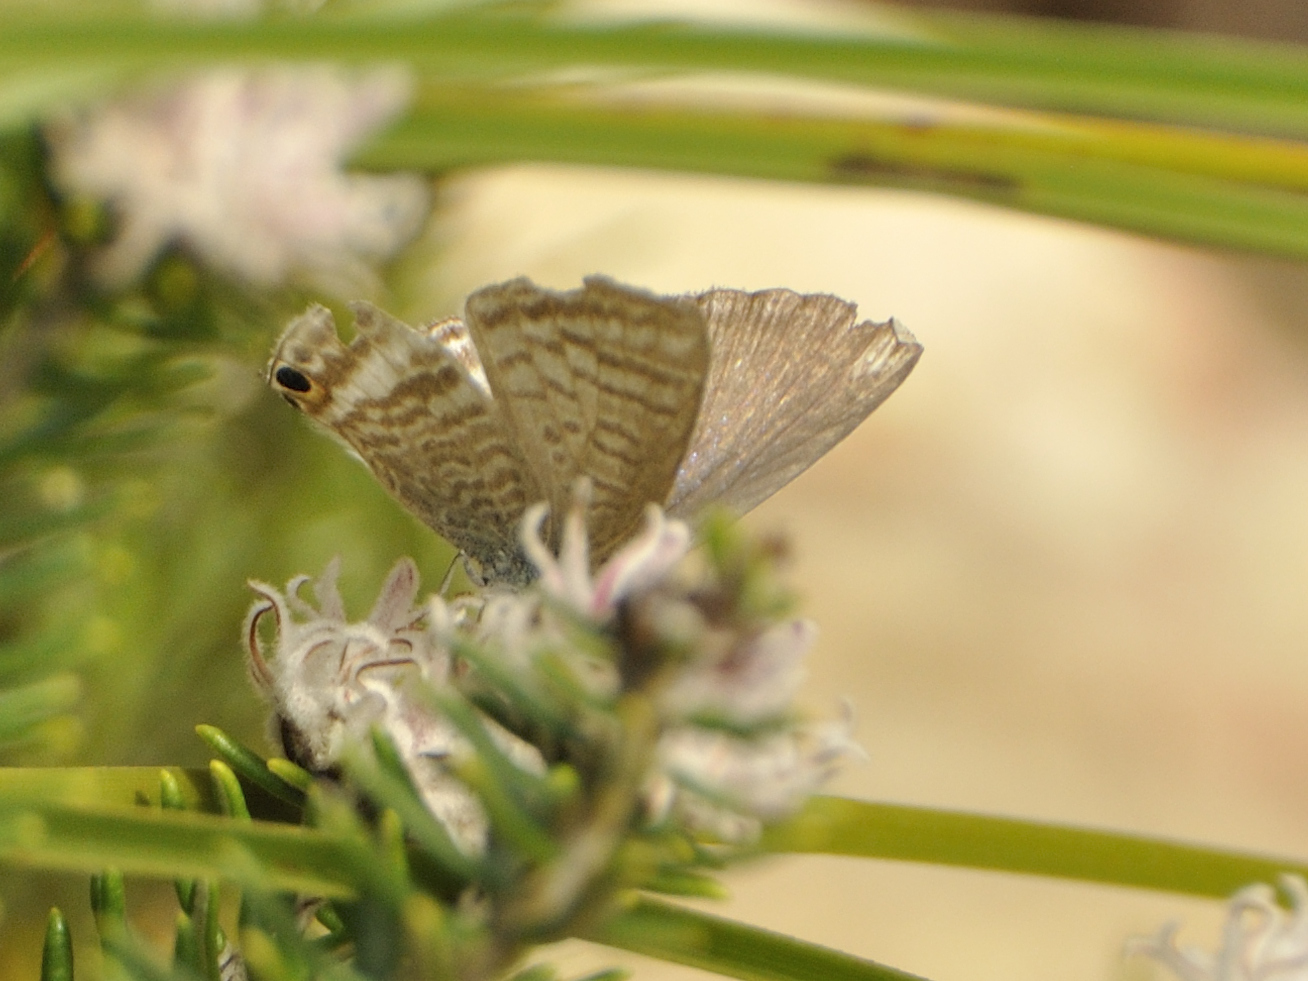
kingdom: Animalia
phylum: Arthropoda
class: Insecta
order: Lepidoptera
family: Lycaenidae
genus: Lampides
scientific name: Lampides boeticus
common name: Long-tailed blue
